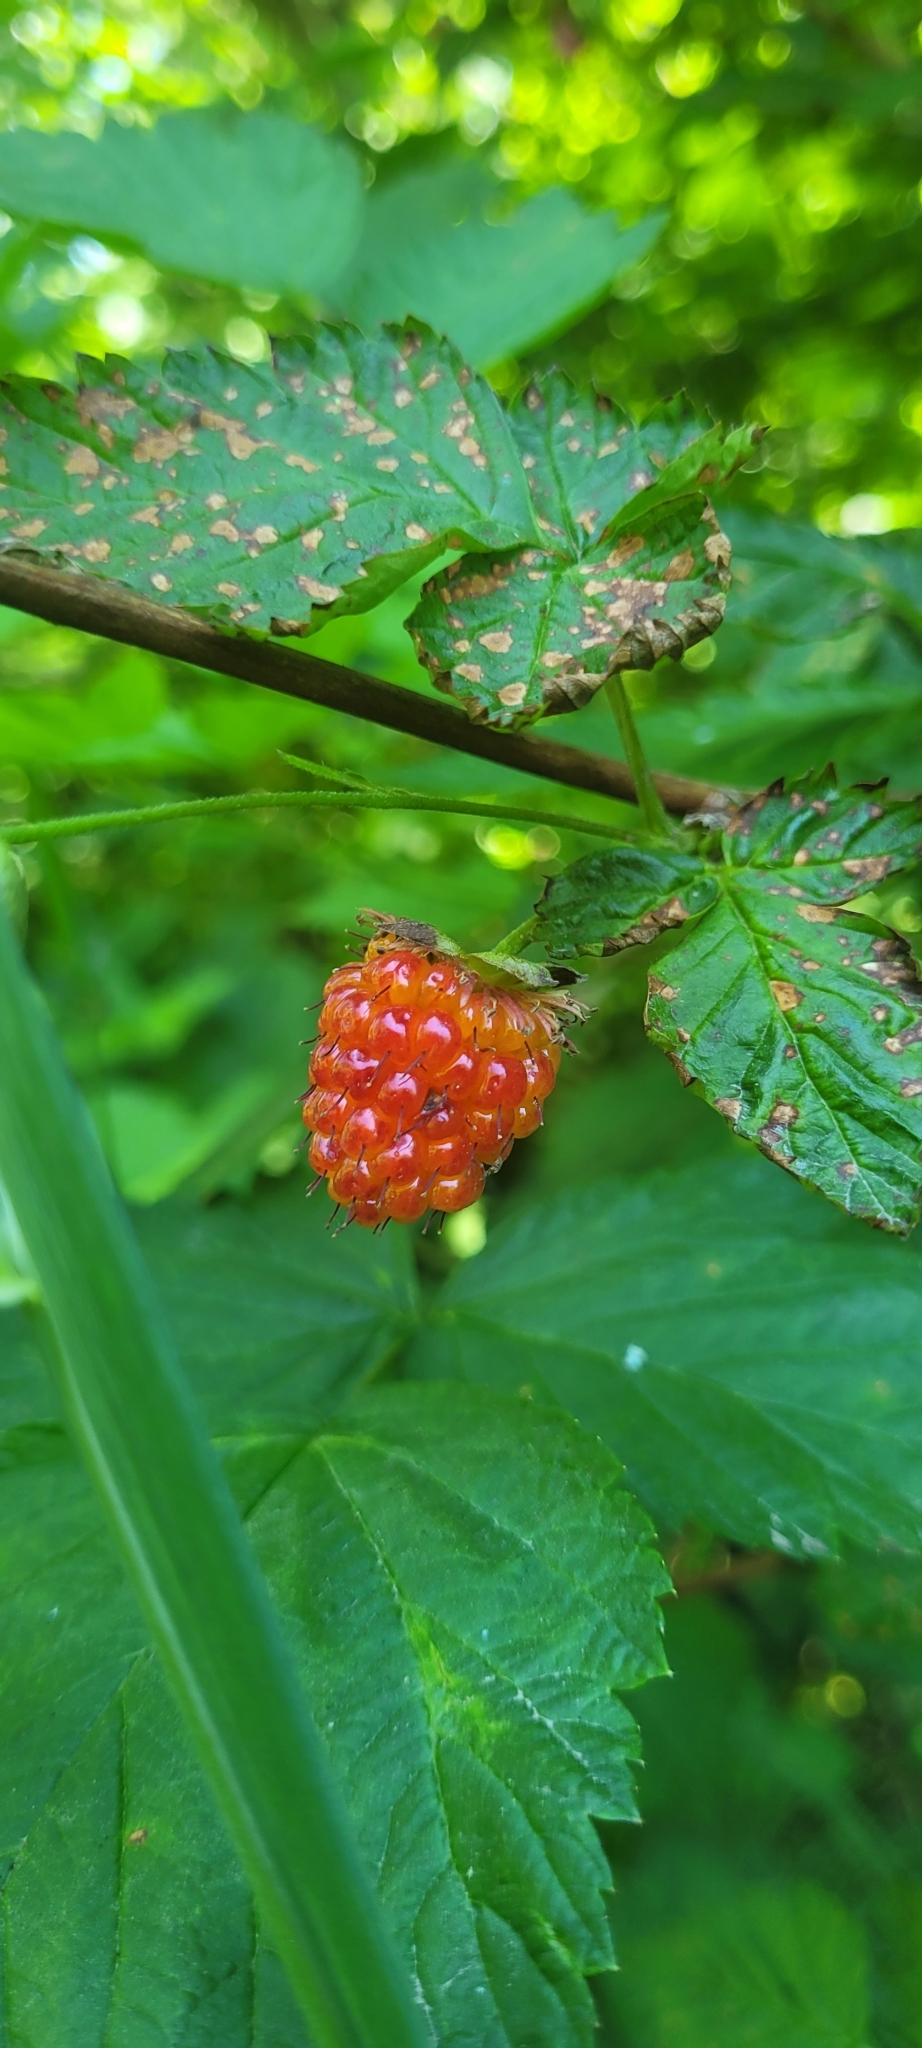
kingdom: Plantae
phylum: Tracheophyta
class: Magnoliopsida
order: Rosales
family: Rosaceae
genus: Rubus
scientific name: Rubus spectabilis
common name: Salmonberry
